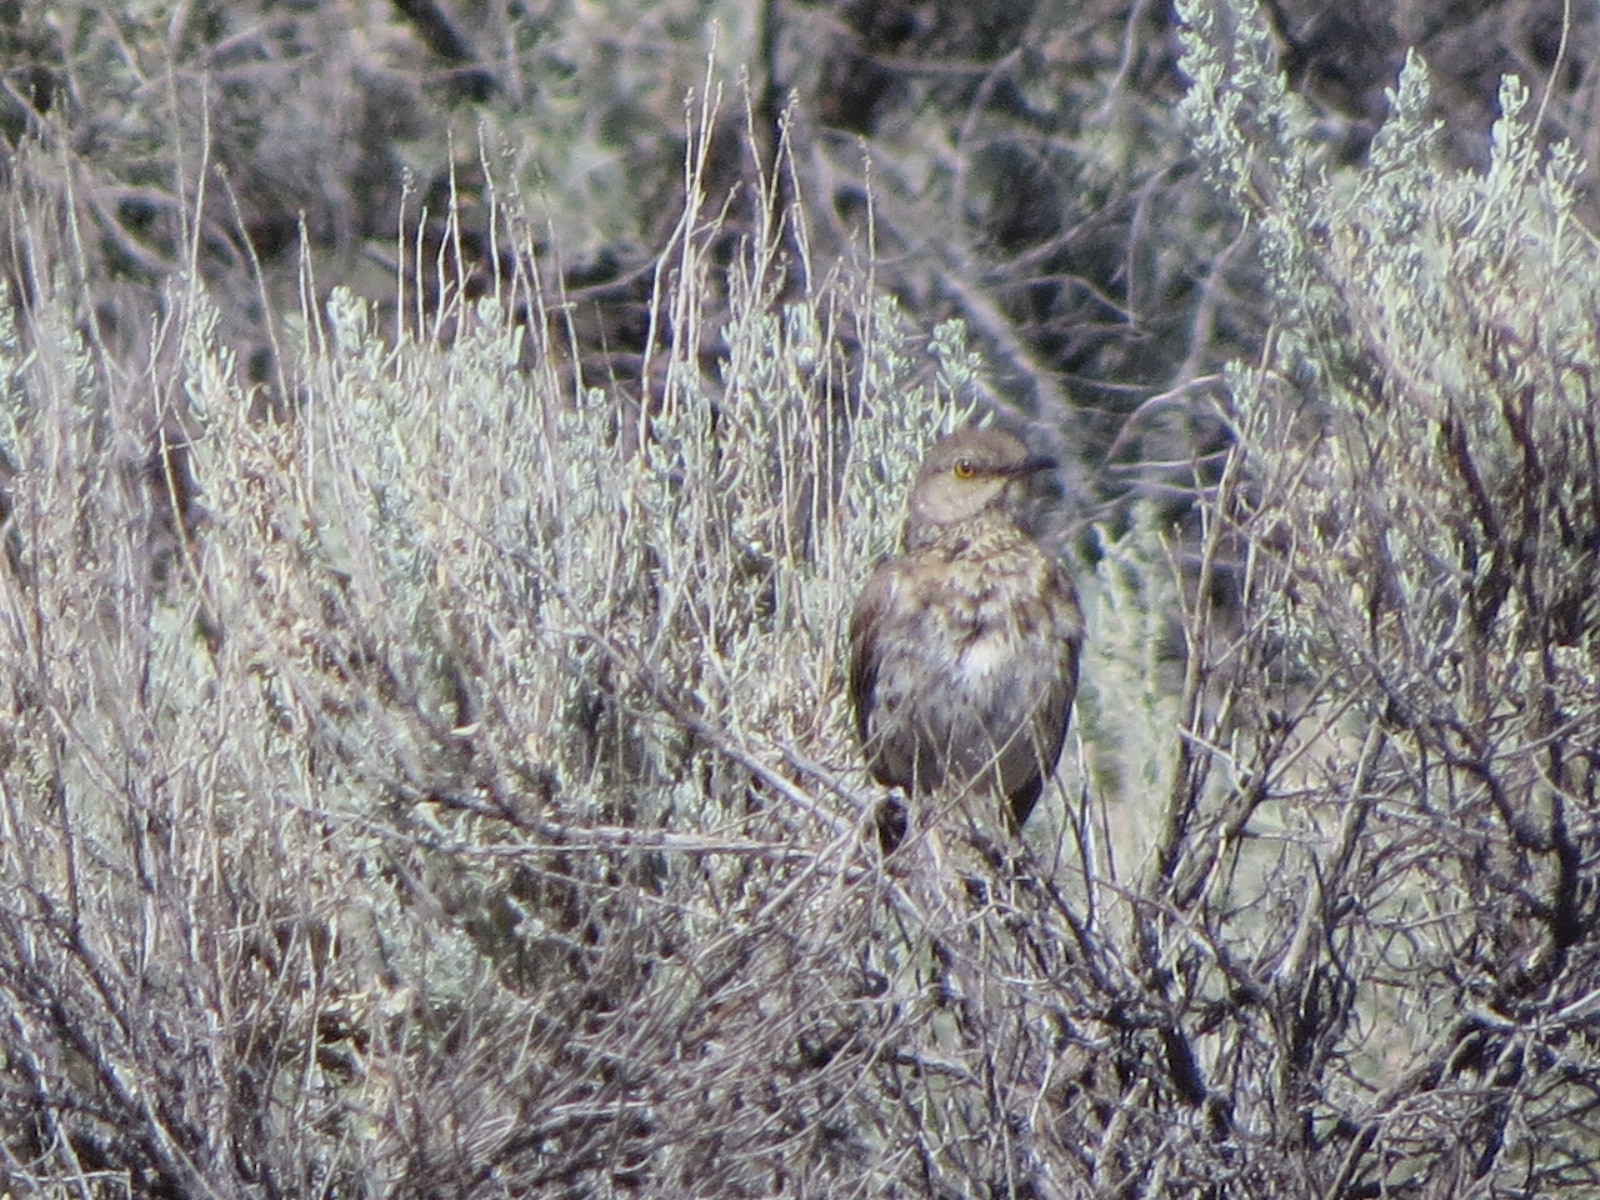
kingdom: Animalia
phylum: Chordata
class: Aves
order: Passeriformes
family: Mimidae
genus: Oreoscoptes
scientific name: Oreoscoptes montanus
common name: Sage thrasher
